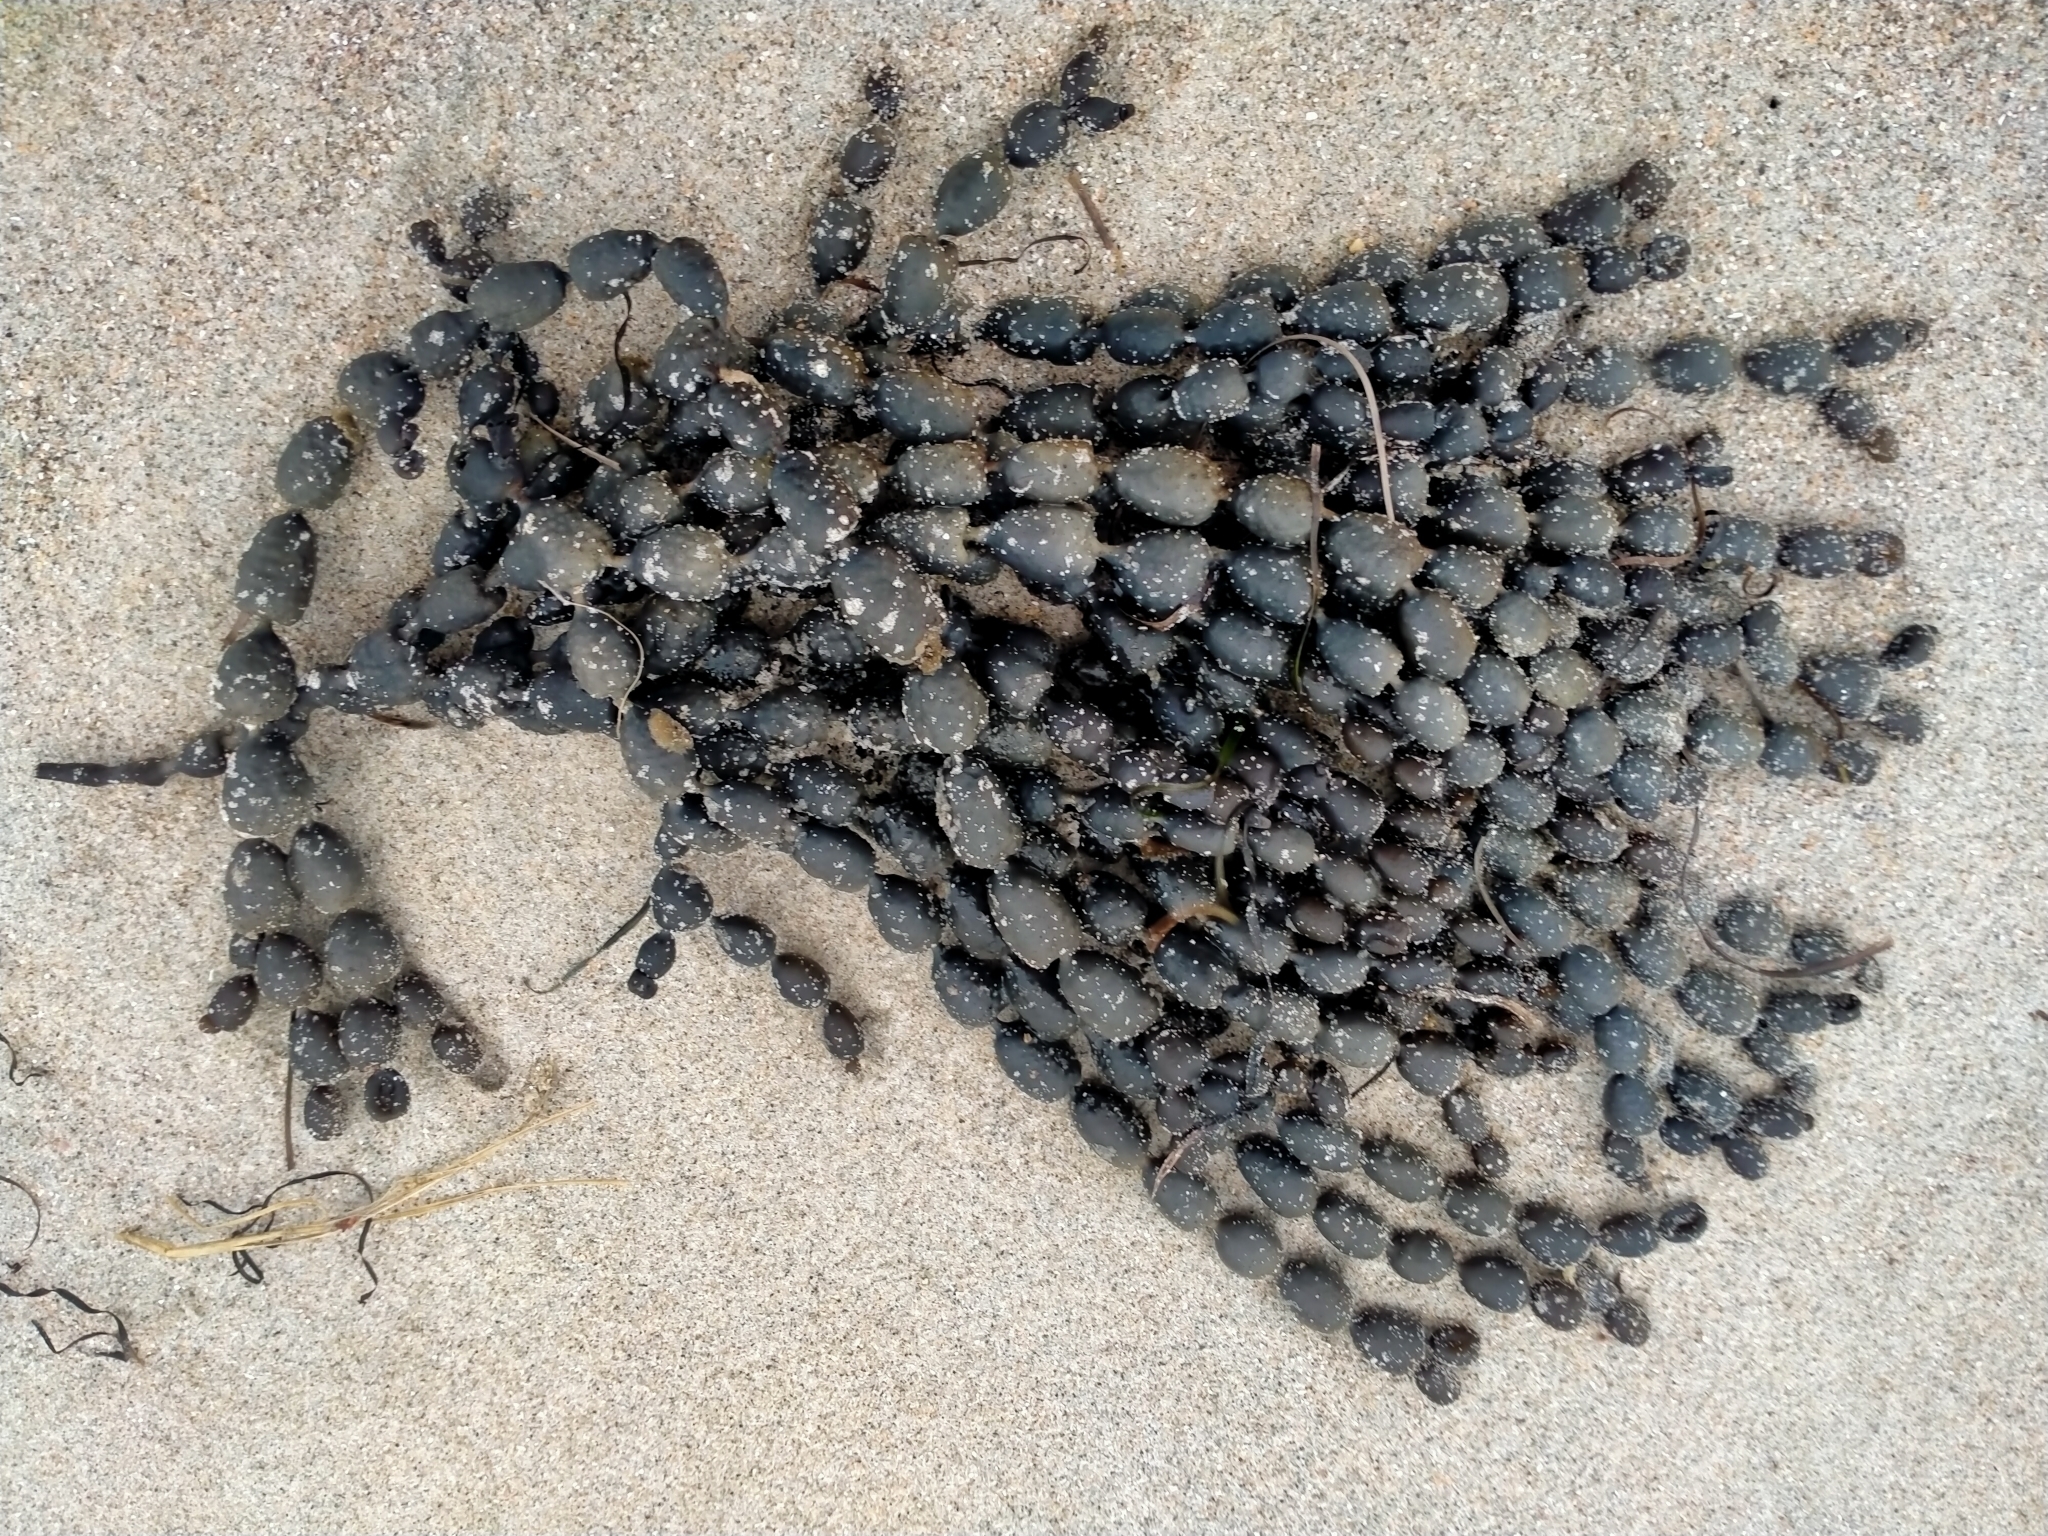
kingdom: Chromista
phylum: Ochrophyta
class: Phaeophyceae
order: Fucales
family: Hormosiraceae
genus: Hormosira
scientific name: Hormosira banksii
